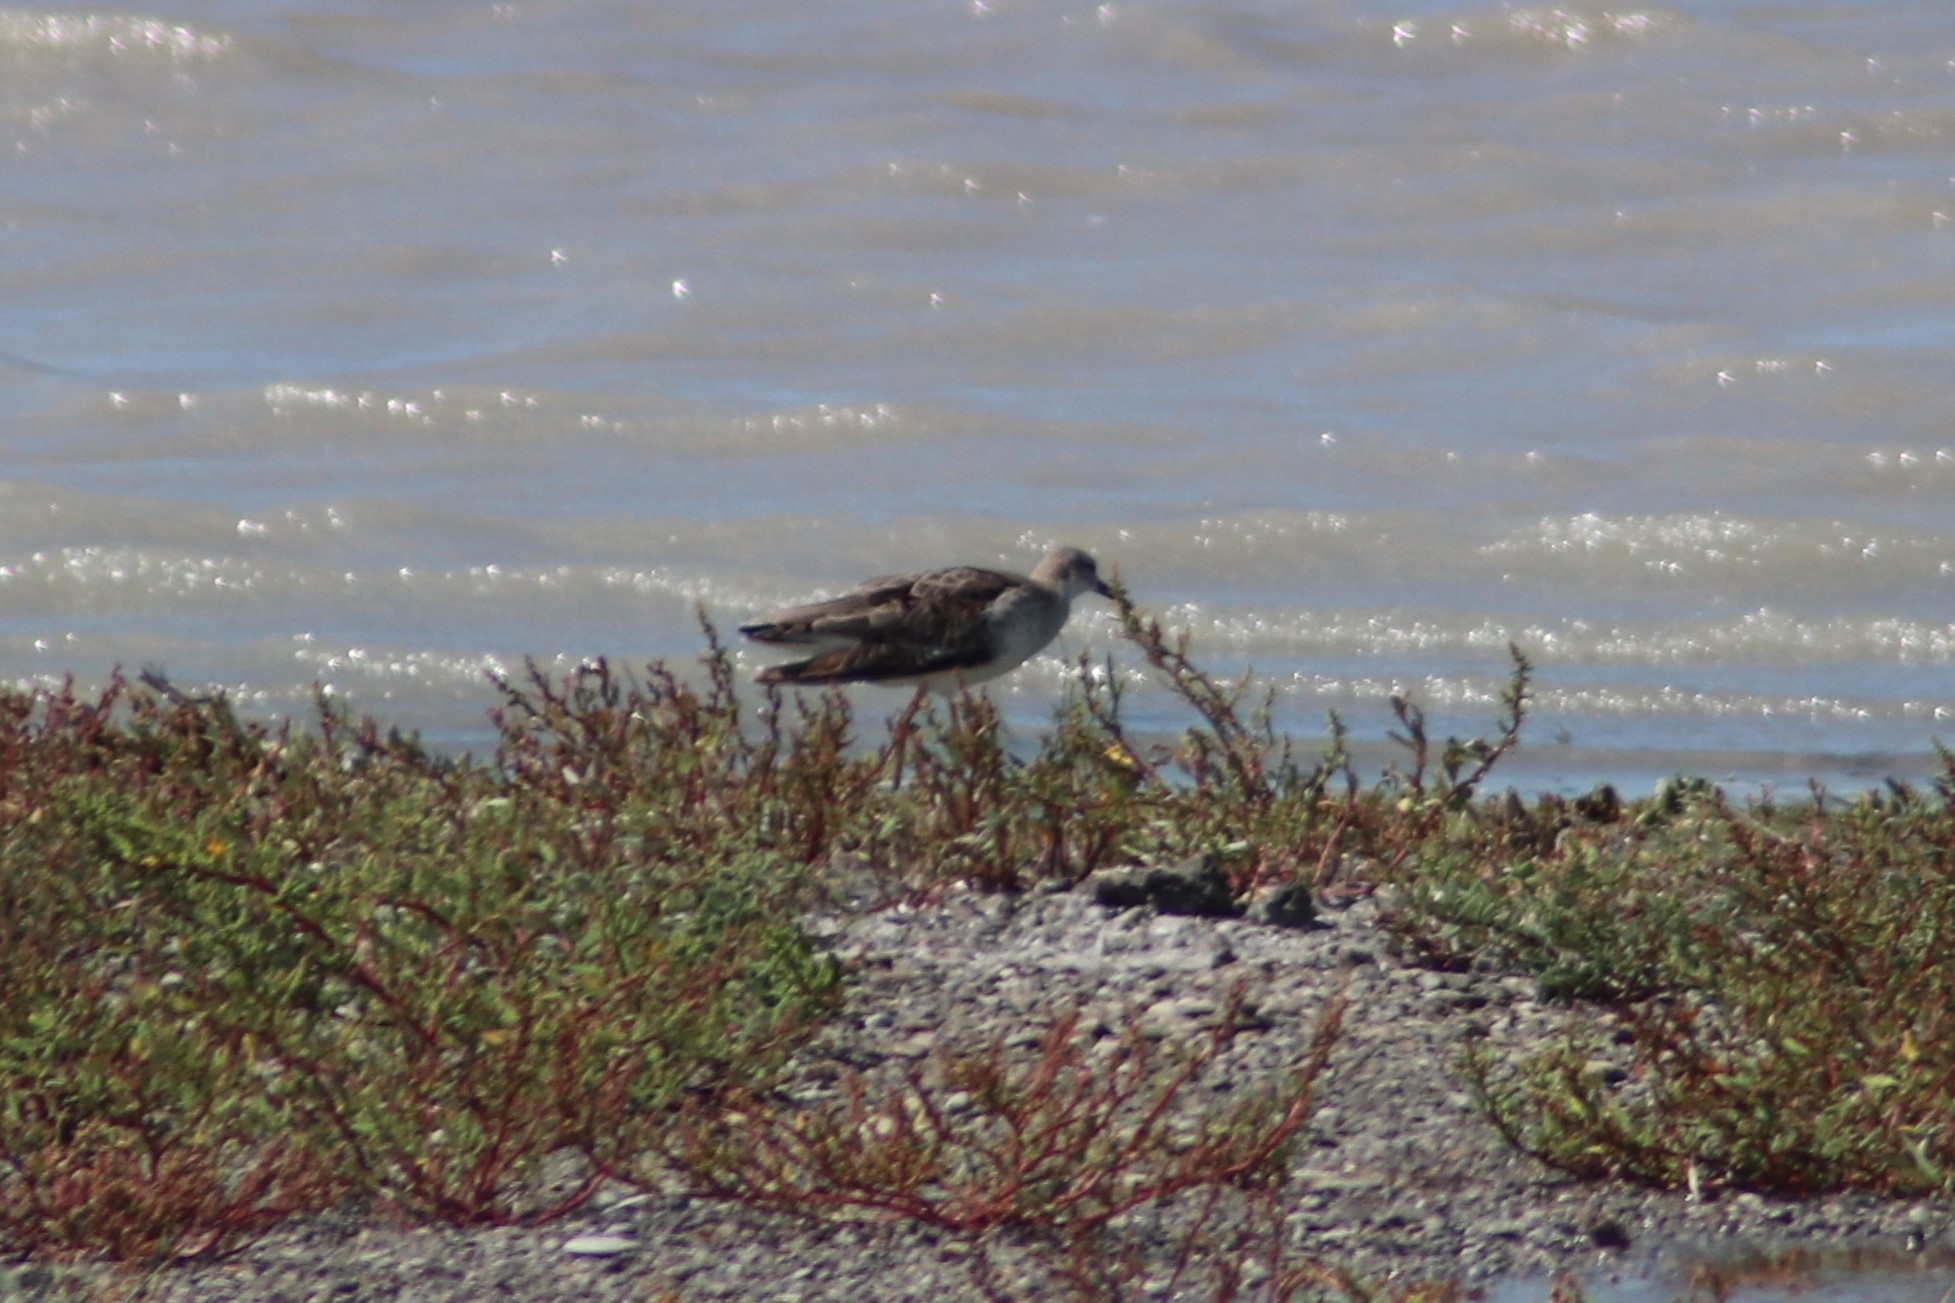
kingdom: Animalia
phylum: Chordata
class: Aves
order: Charadriiformes
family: Scolopacidae
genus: Calidris
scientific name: Calidris pugnax
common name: Ruff
